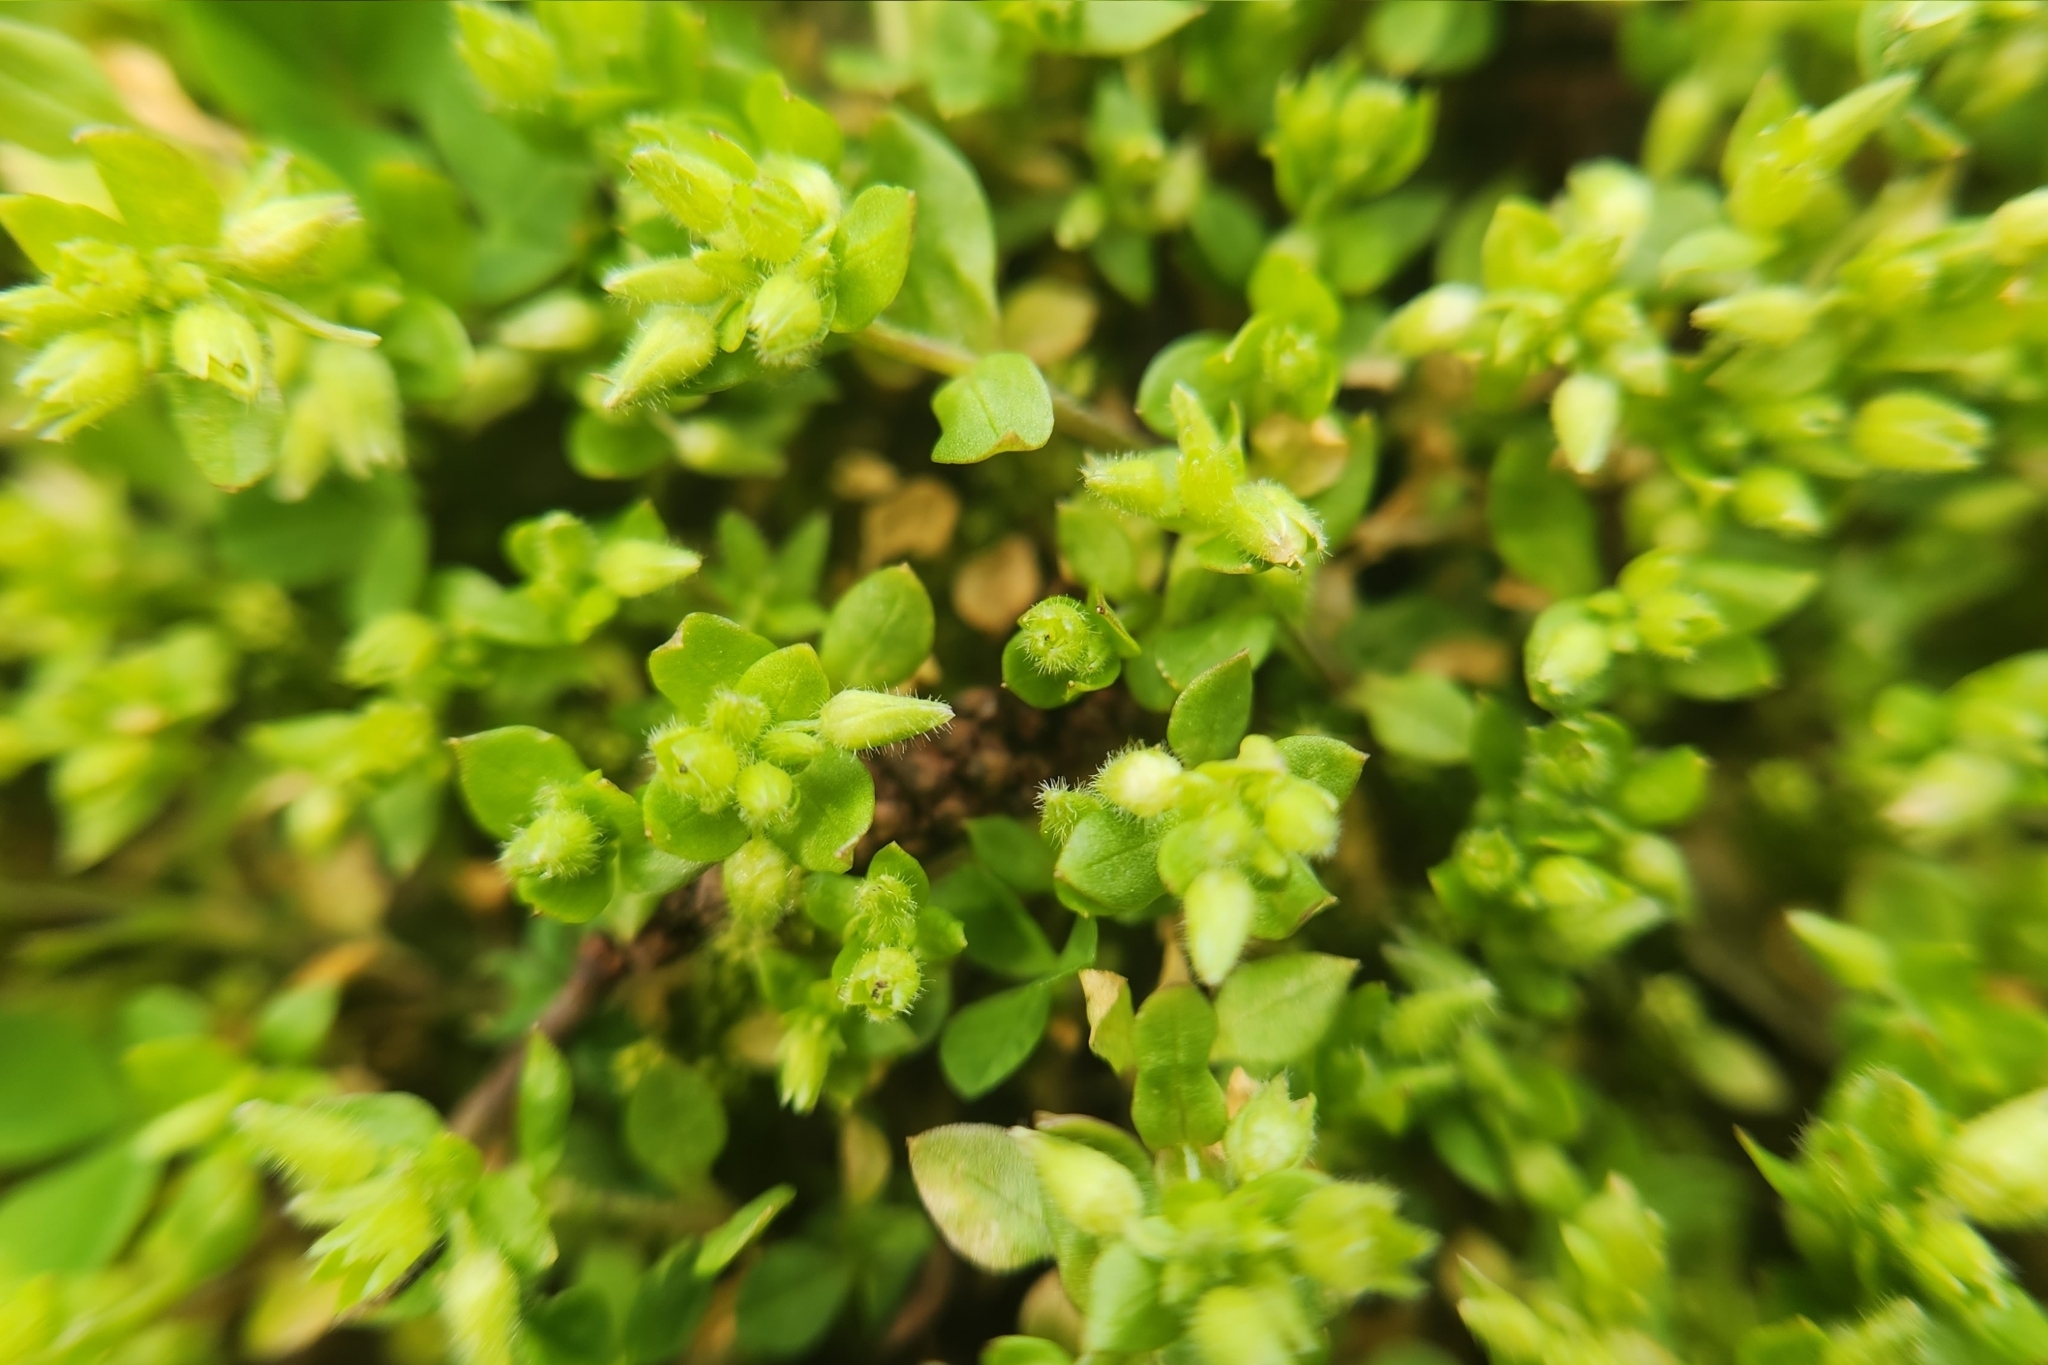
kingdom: Plantae
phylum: Tracheophyta
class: Magnoliopsida
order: Caryophyllales
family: Caryophyllaceae
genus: Stellaria
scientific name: Stellaria apetala
